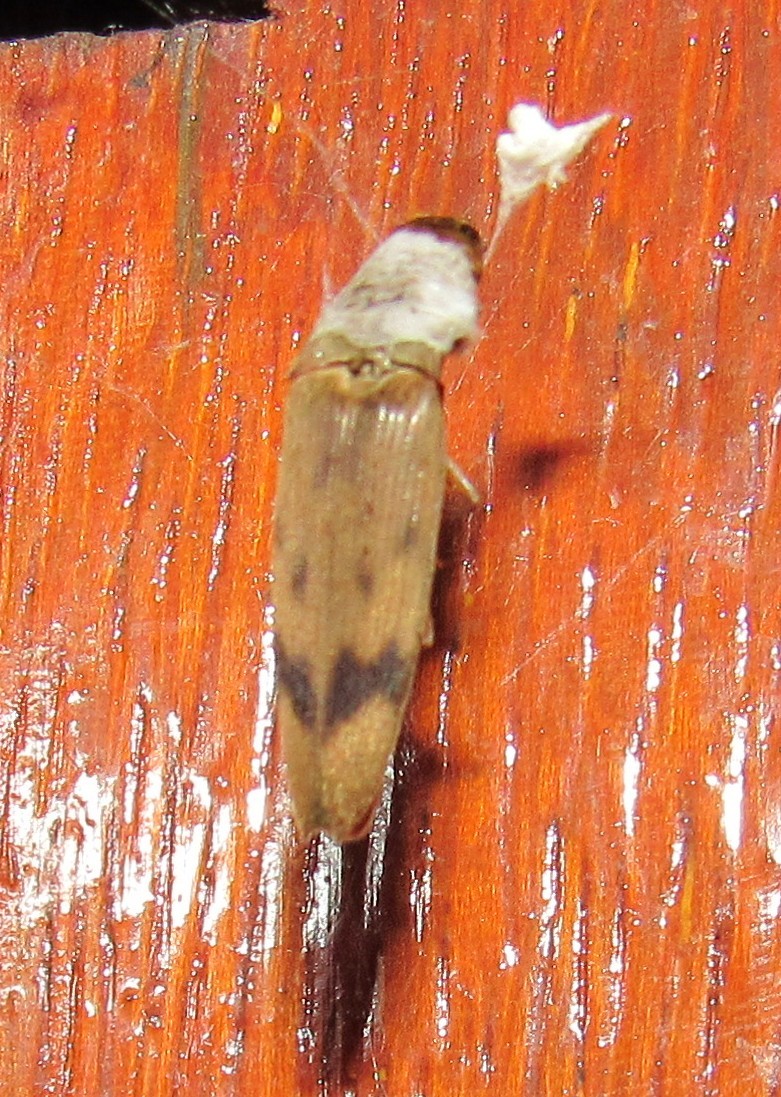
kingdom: Animalia
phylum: Arthropoda
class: Insecta
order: Coleoptera
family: Elateridae
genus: Monocrepidius
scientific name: Monocrepidius
